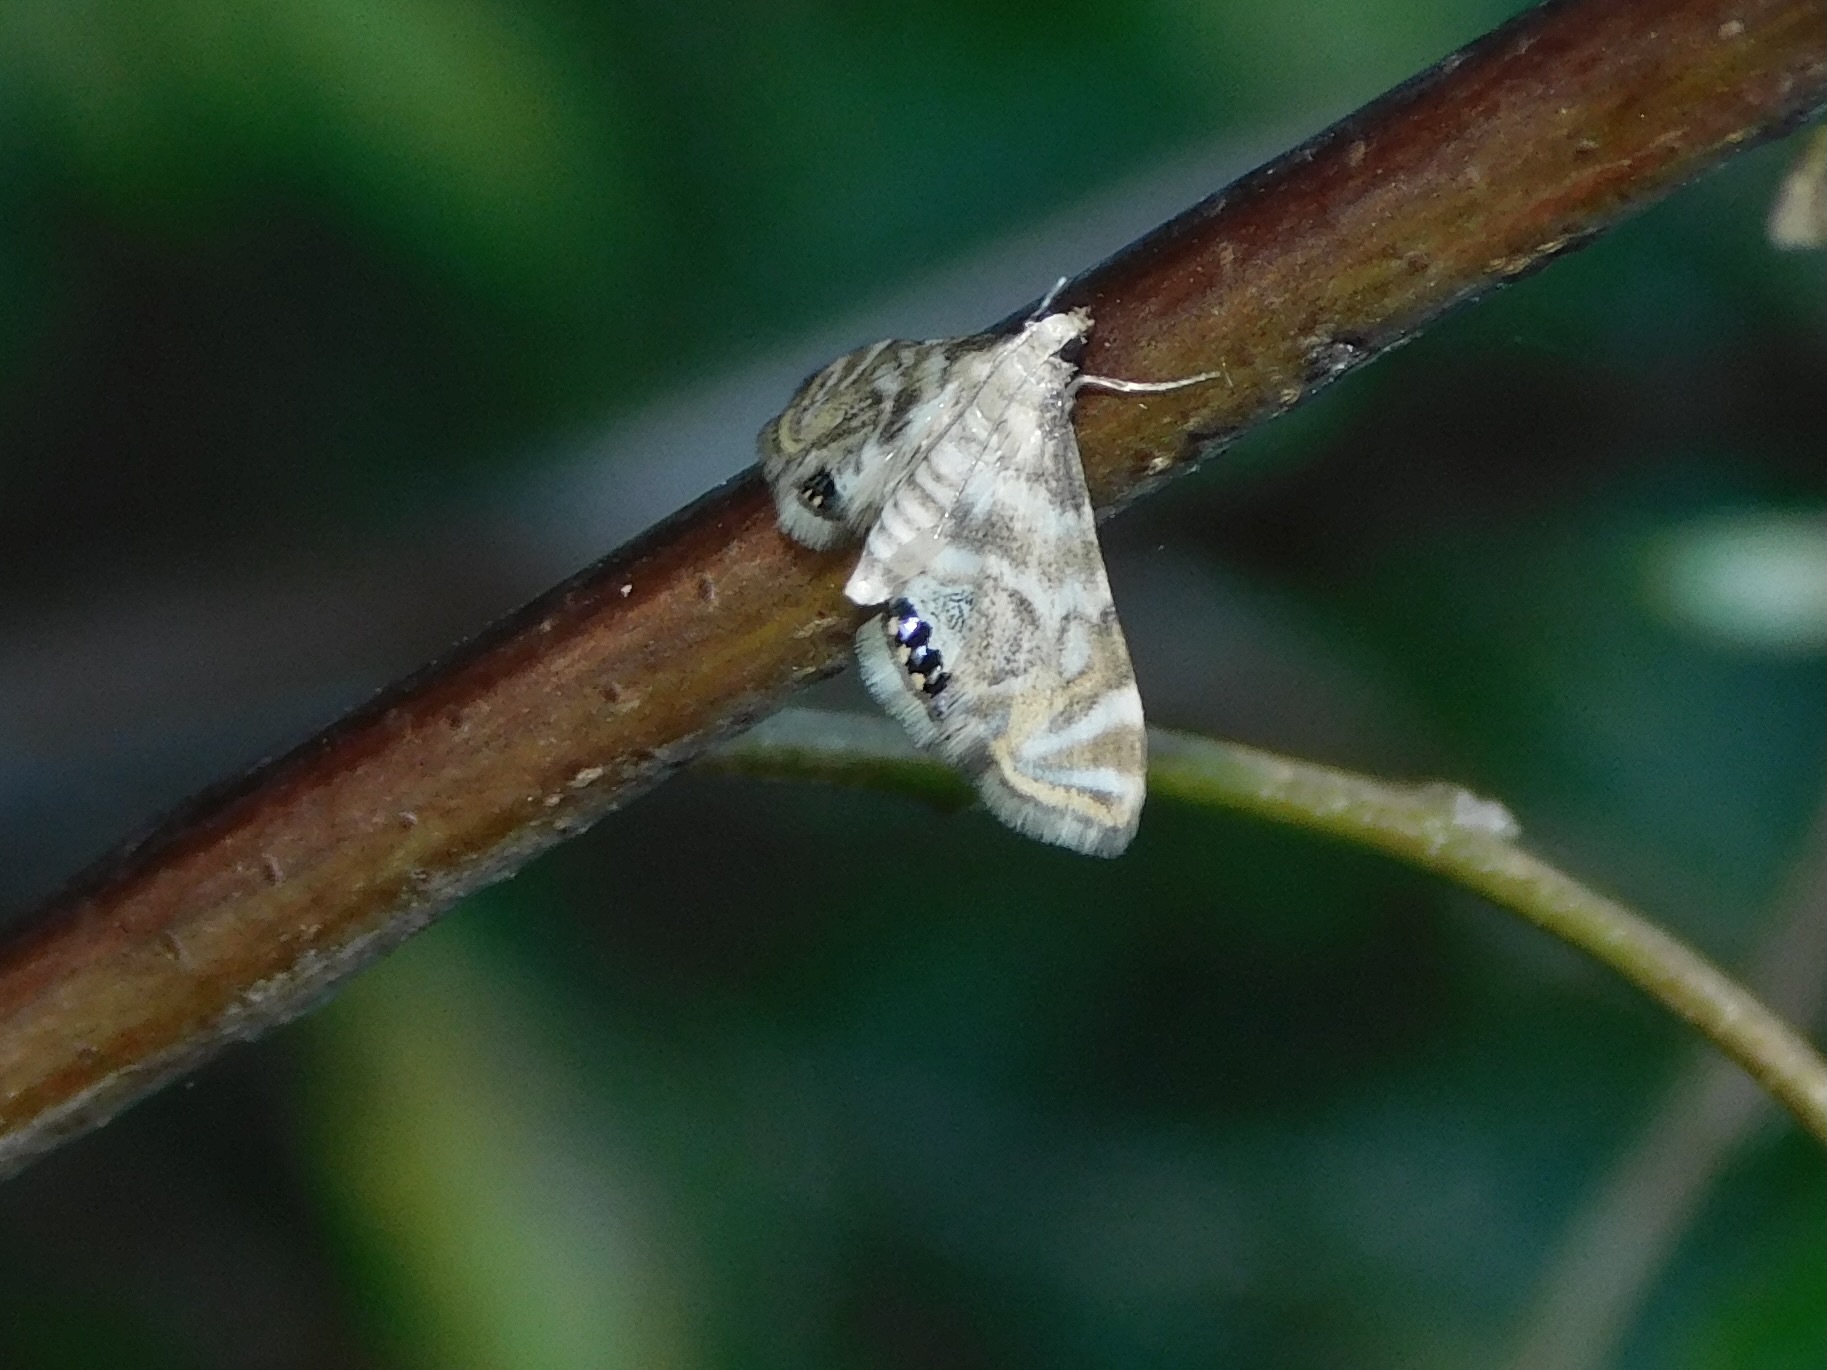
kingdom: Animalia
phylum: Arthropoda
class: Insecta
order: Lepidoptera
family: Crambidae
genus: Petrophila
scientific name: Petrophila canadensis
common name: Canadian petrophila
